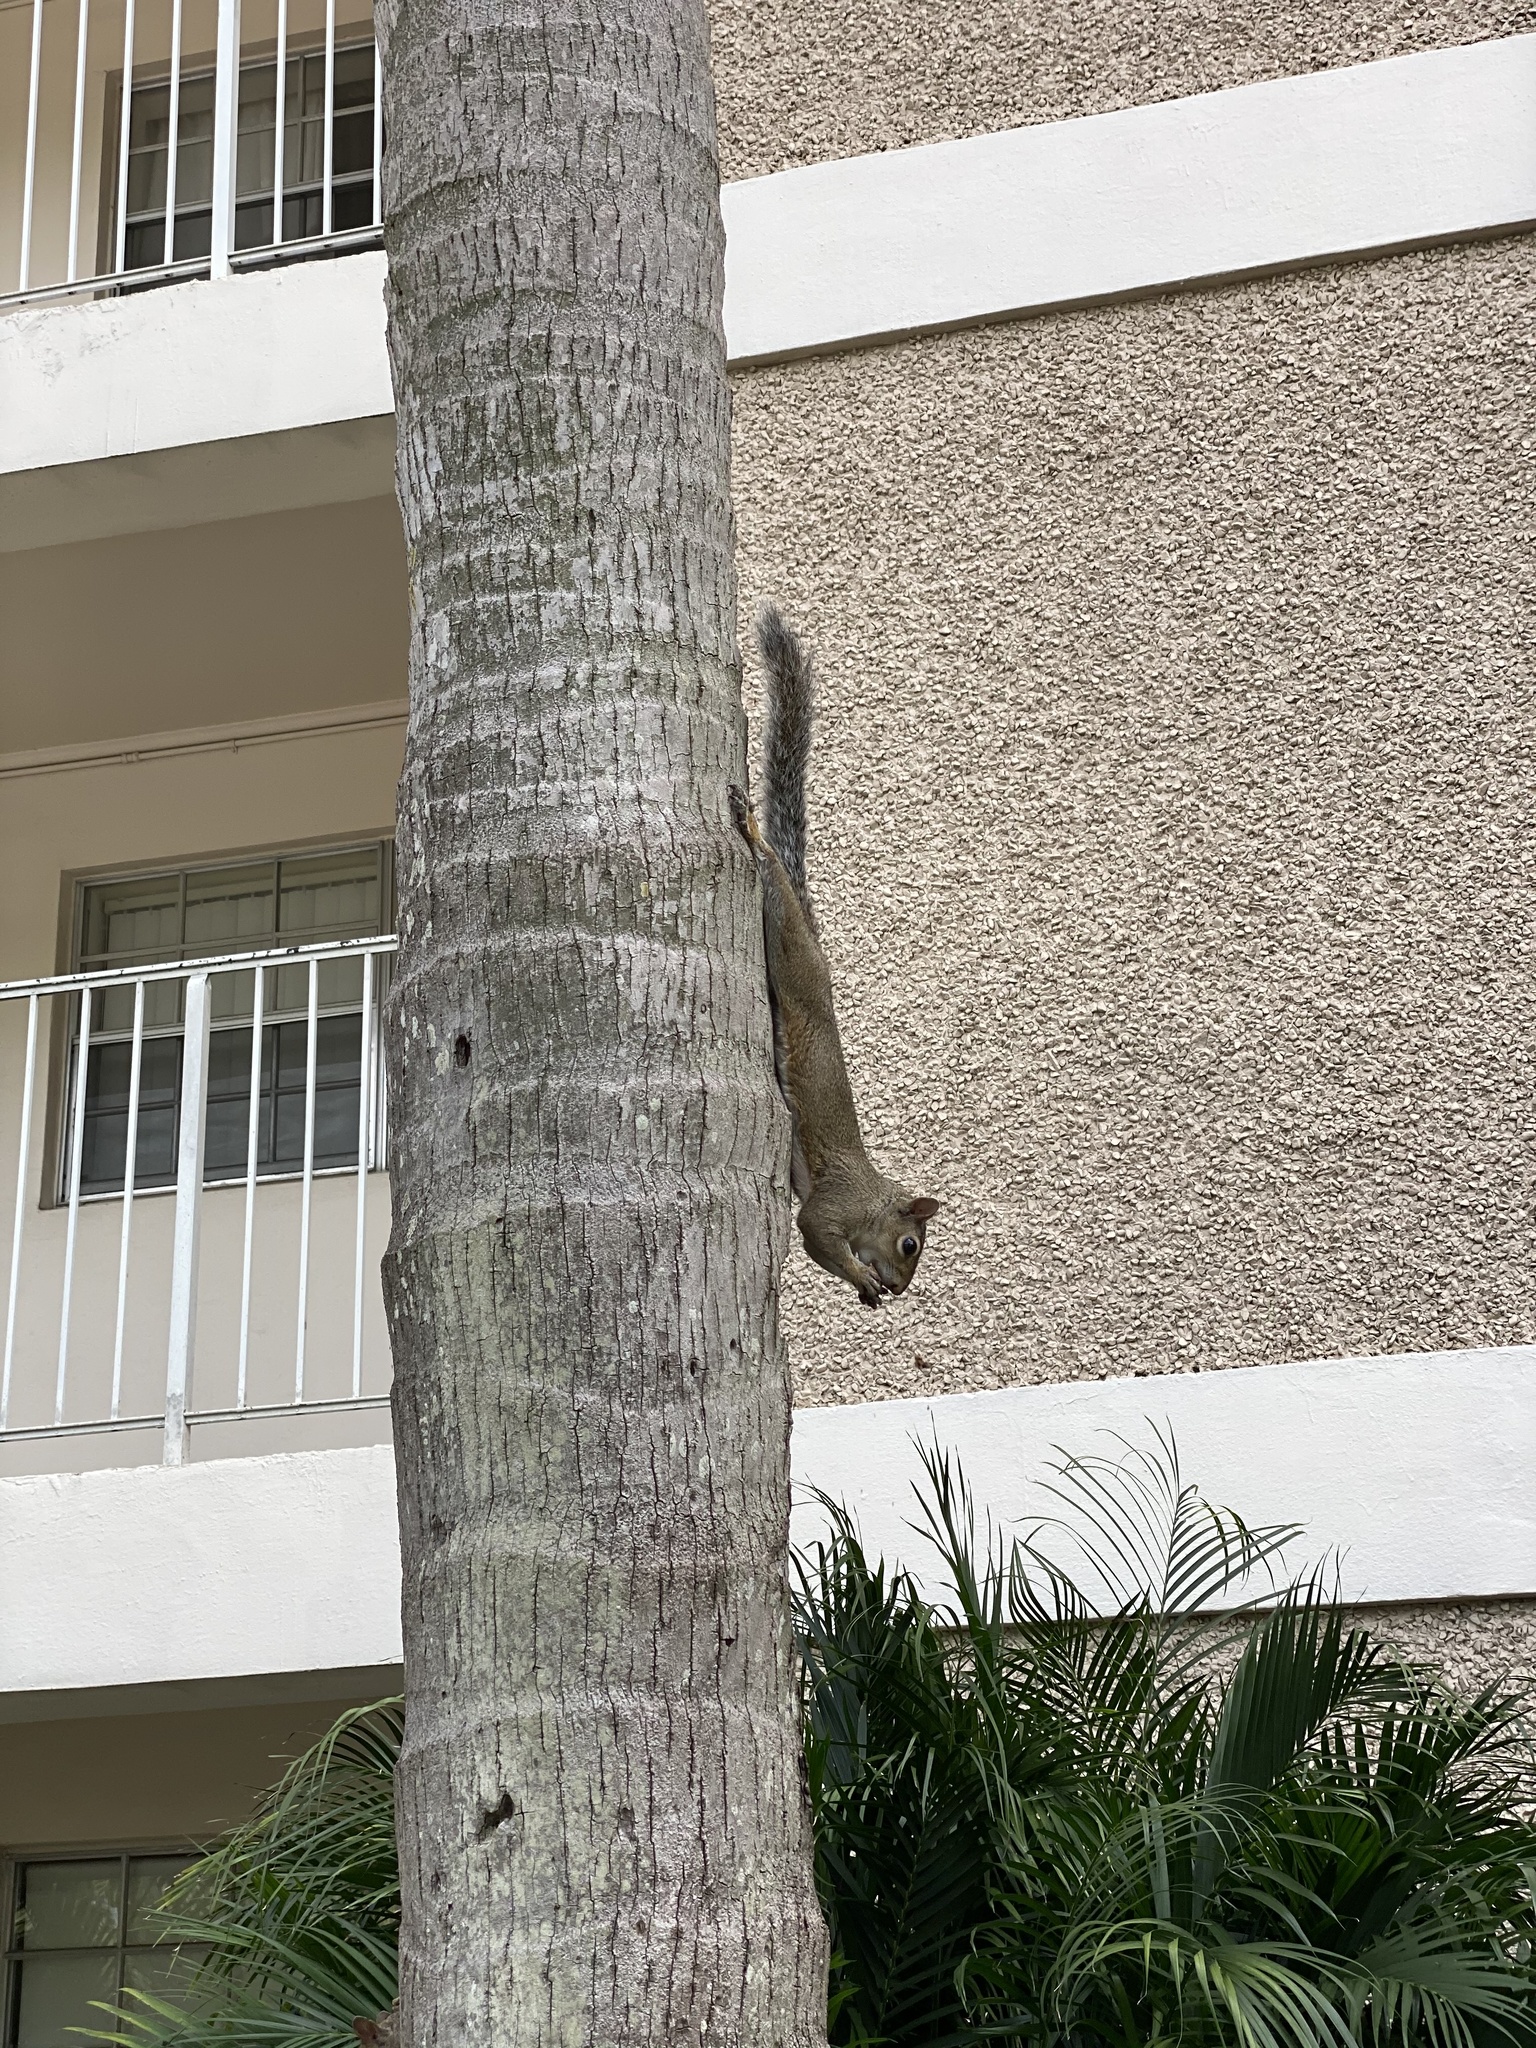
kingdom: Animalia
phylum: Chordata
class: Mammalia
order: Rodentia
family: Sciuridae
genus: Sciurus
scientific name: Sciurus carolinensis
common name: Eastern gray squirrel
